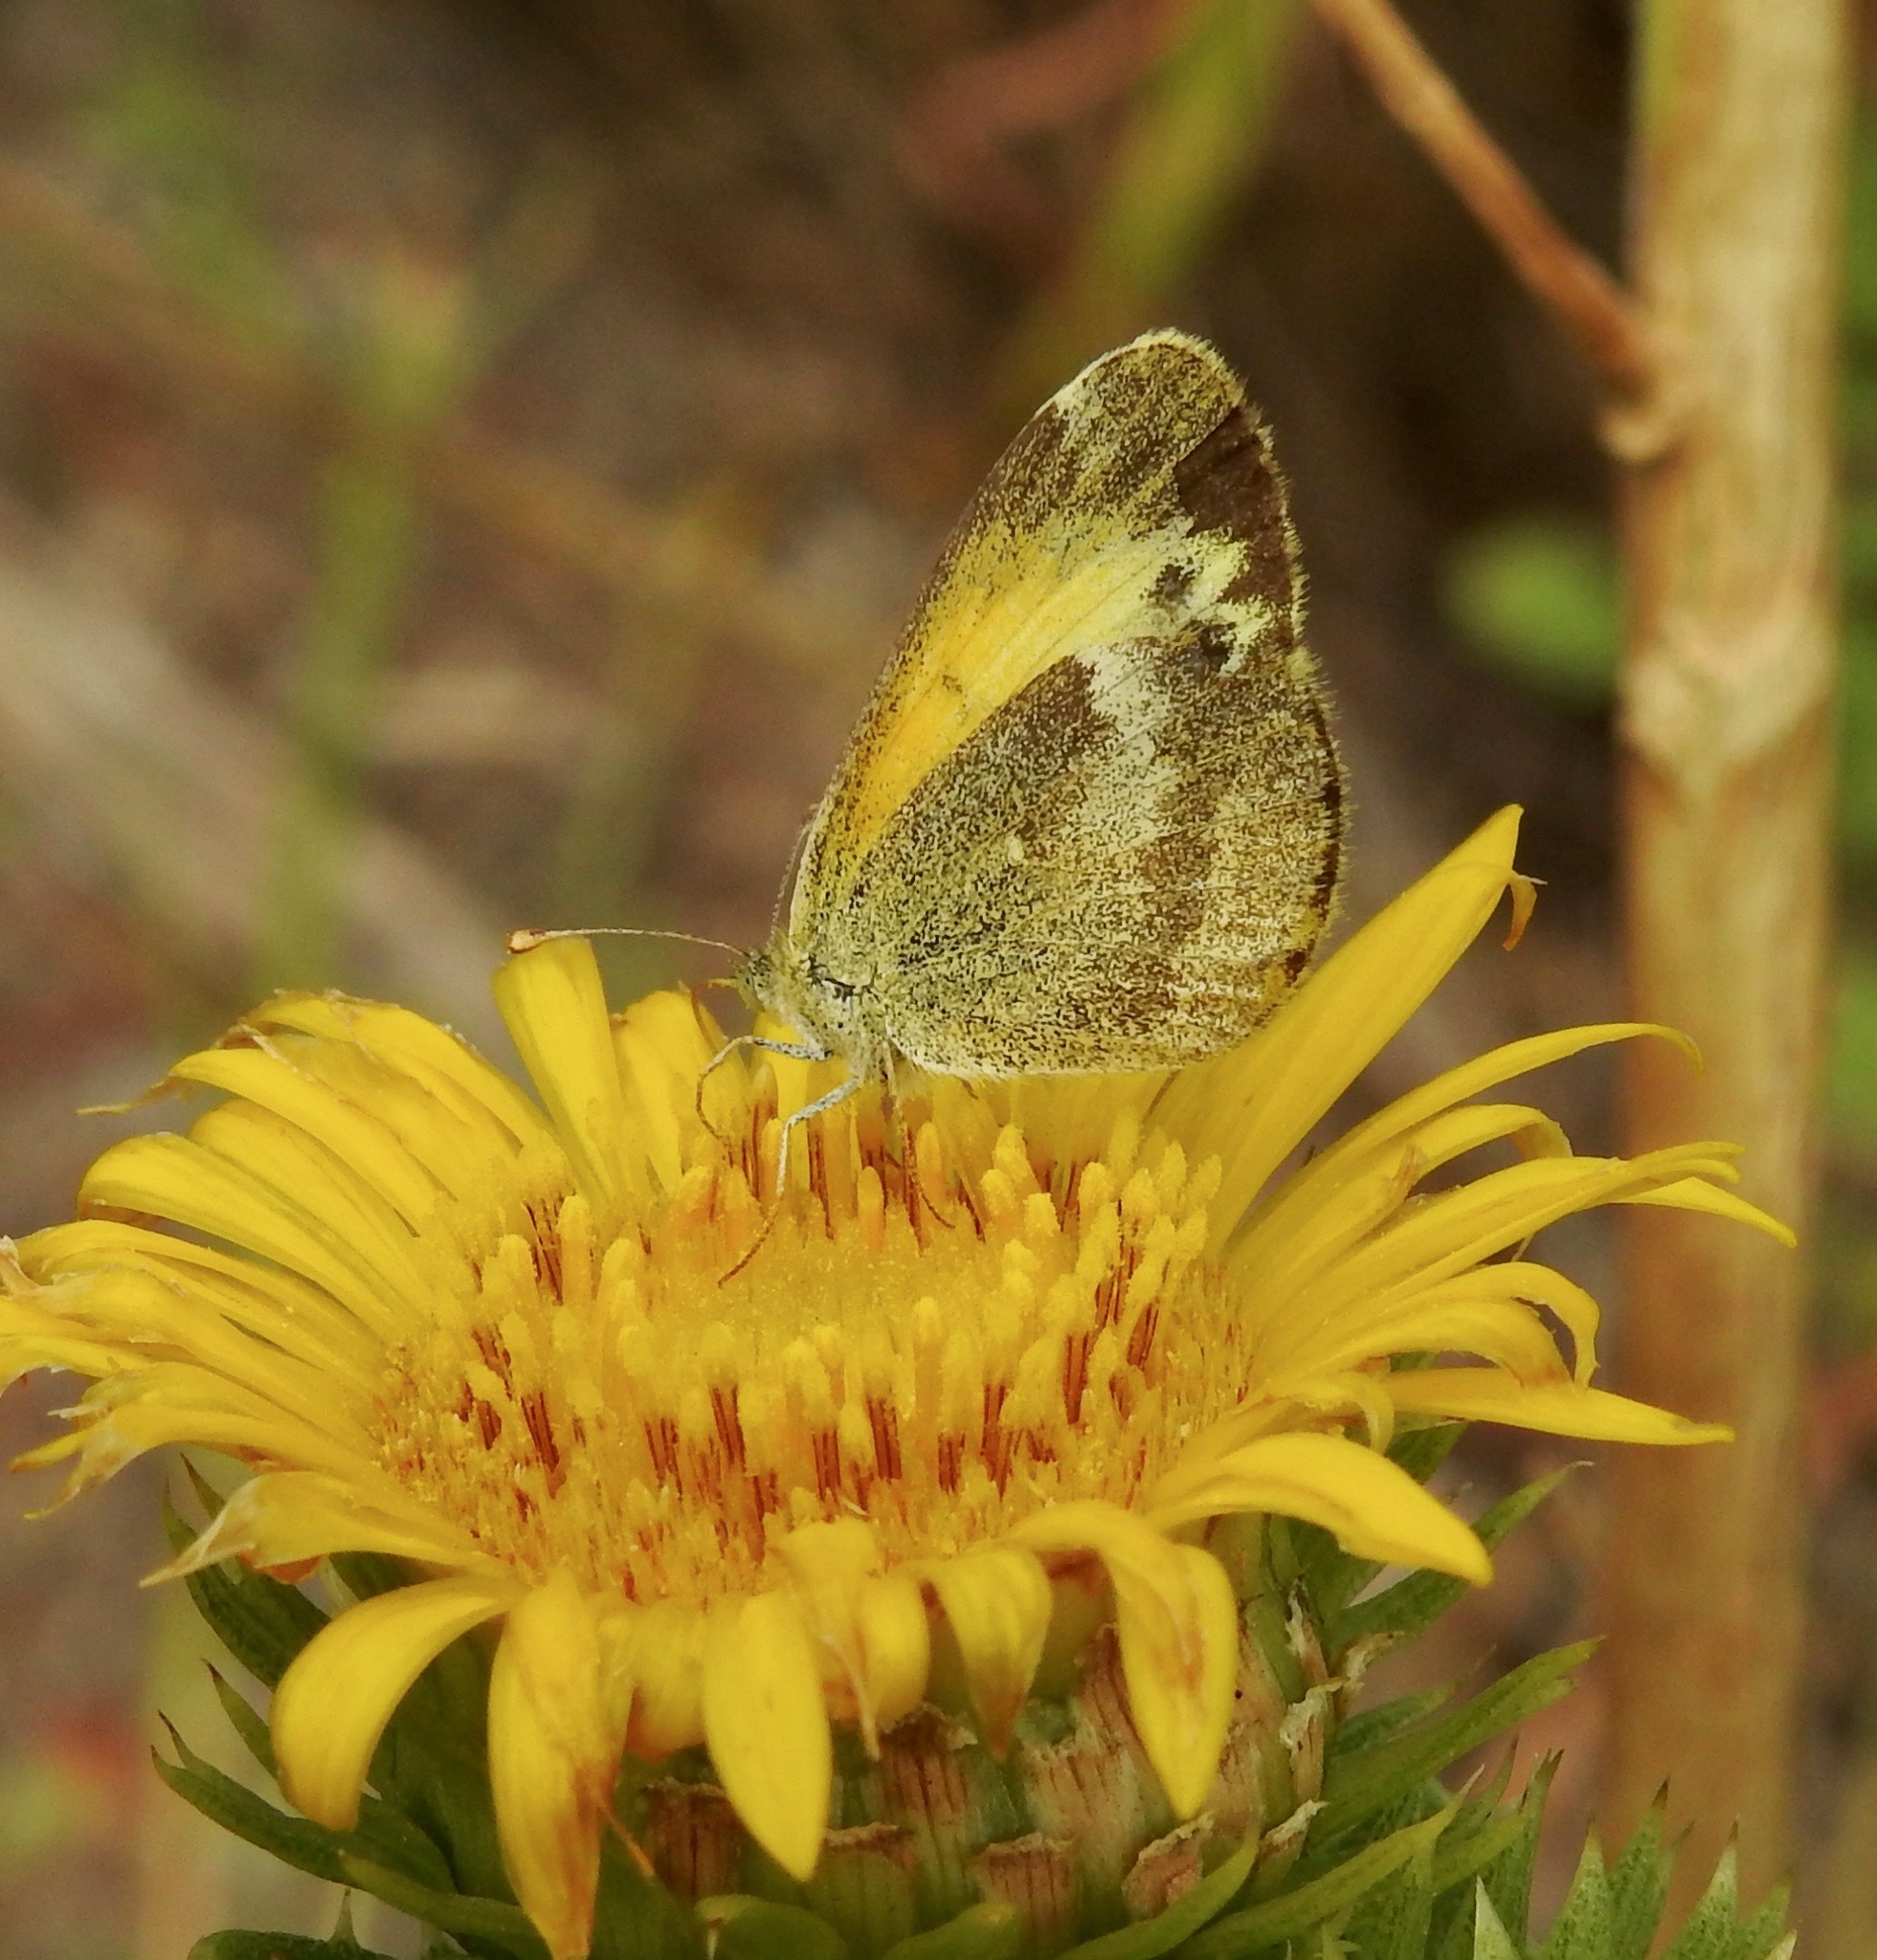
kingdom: Animalia
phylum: Arthropoda
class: Insecta
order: Lepidoptera
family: Pieridae
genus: Nathalis
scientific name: Nathalis iole
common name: Dainty sulphur
